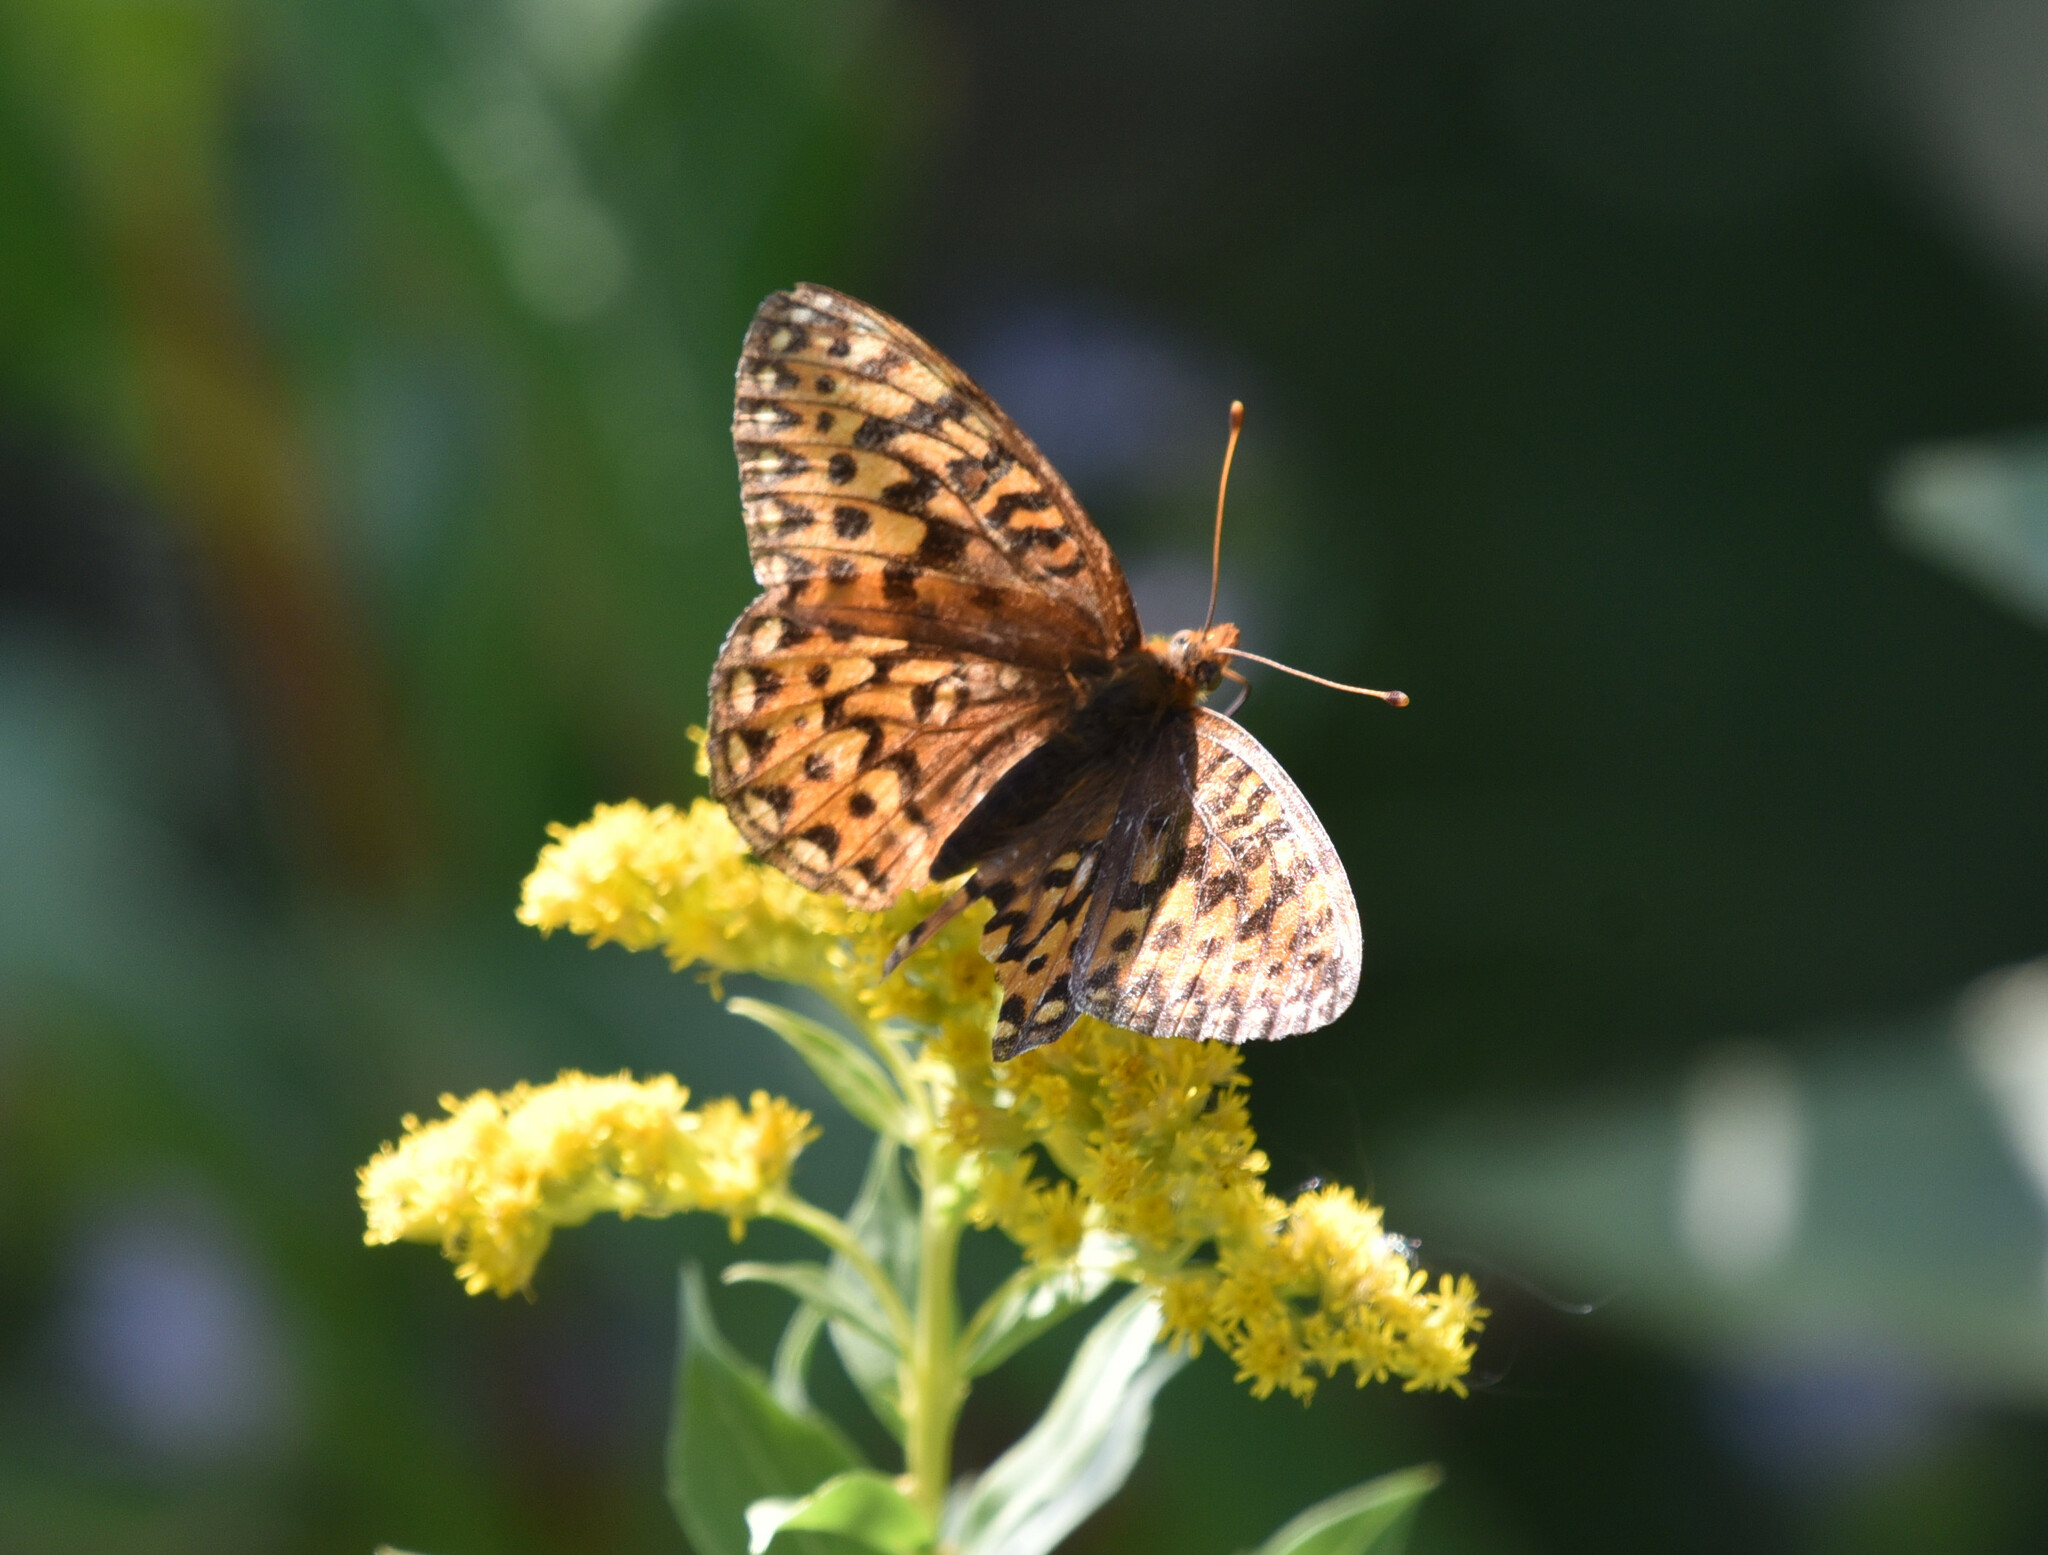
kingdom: Animalia
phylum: Arthropoda
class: Insecta
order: Lepidoptera
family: Nymphalidae
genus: Speyeria
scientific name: Speyeria mormonia
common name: Mormon fritillary
